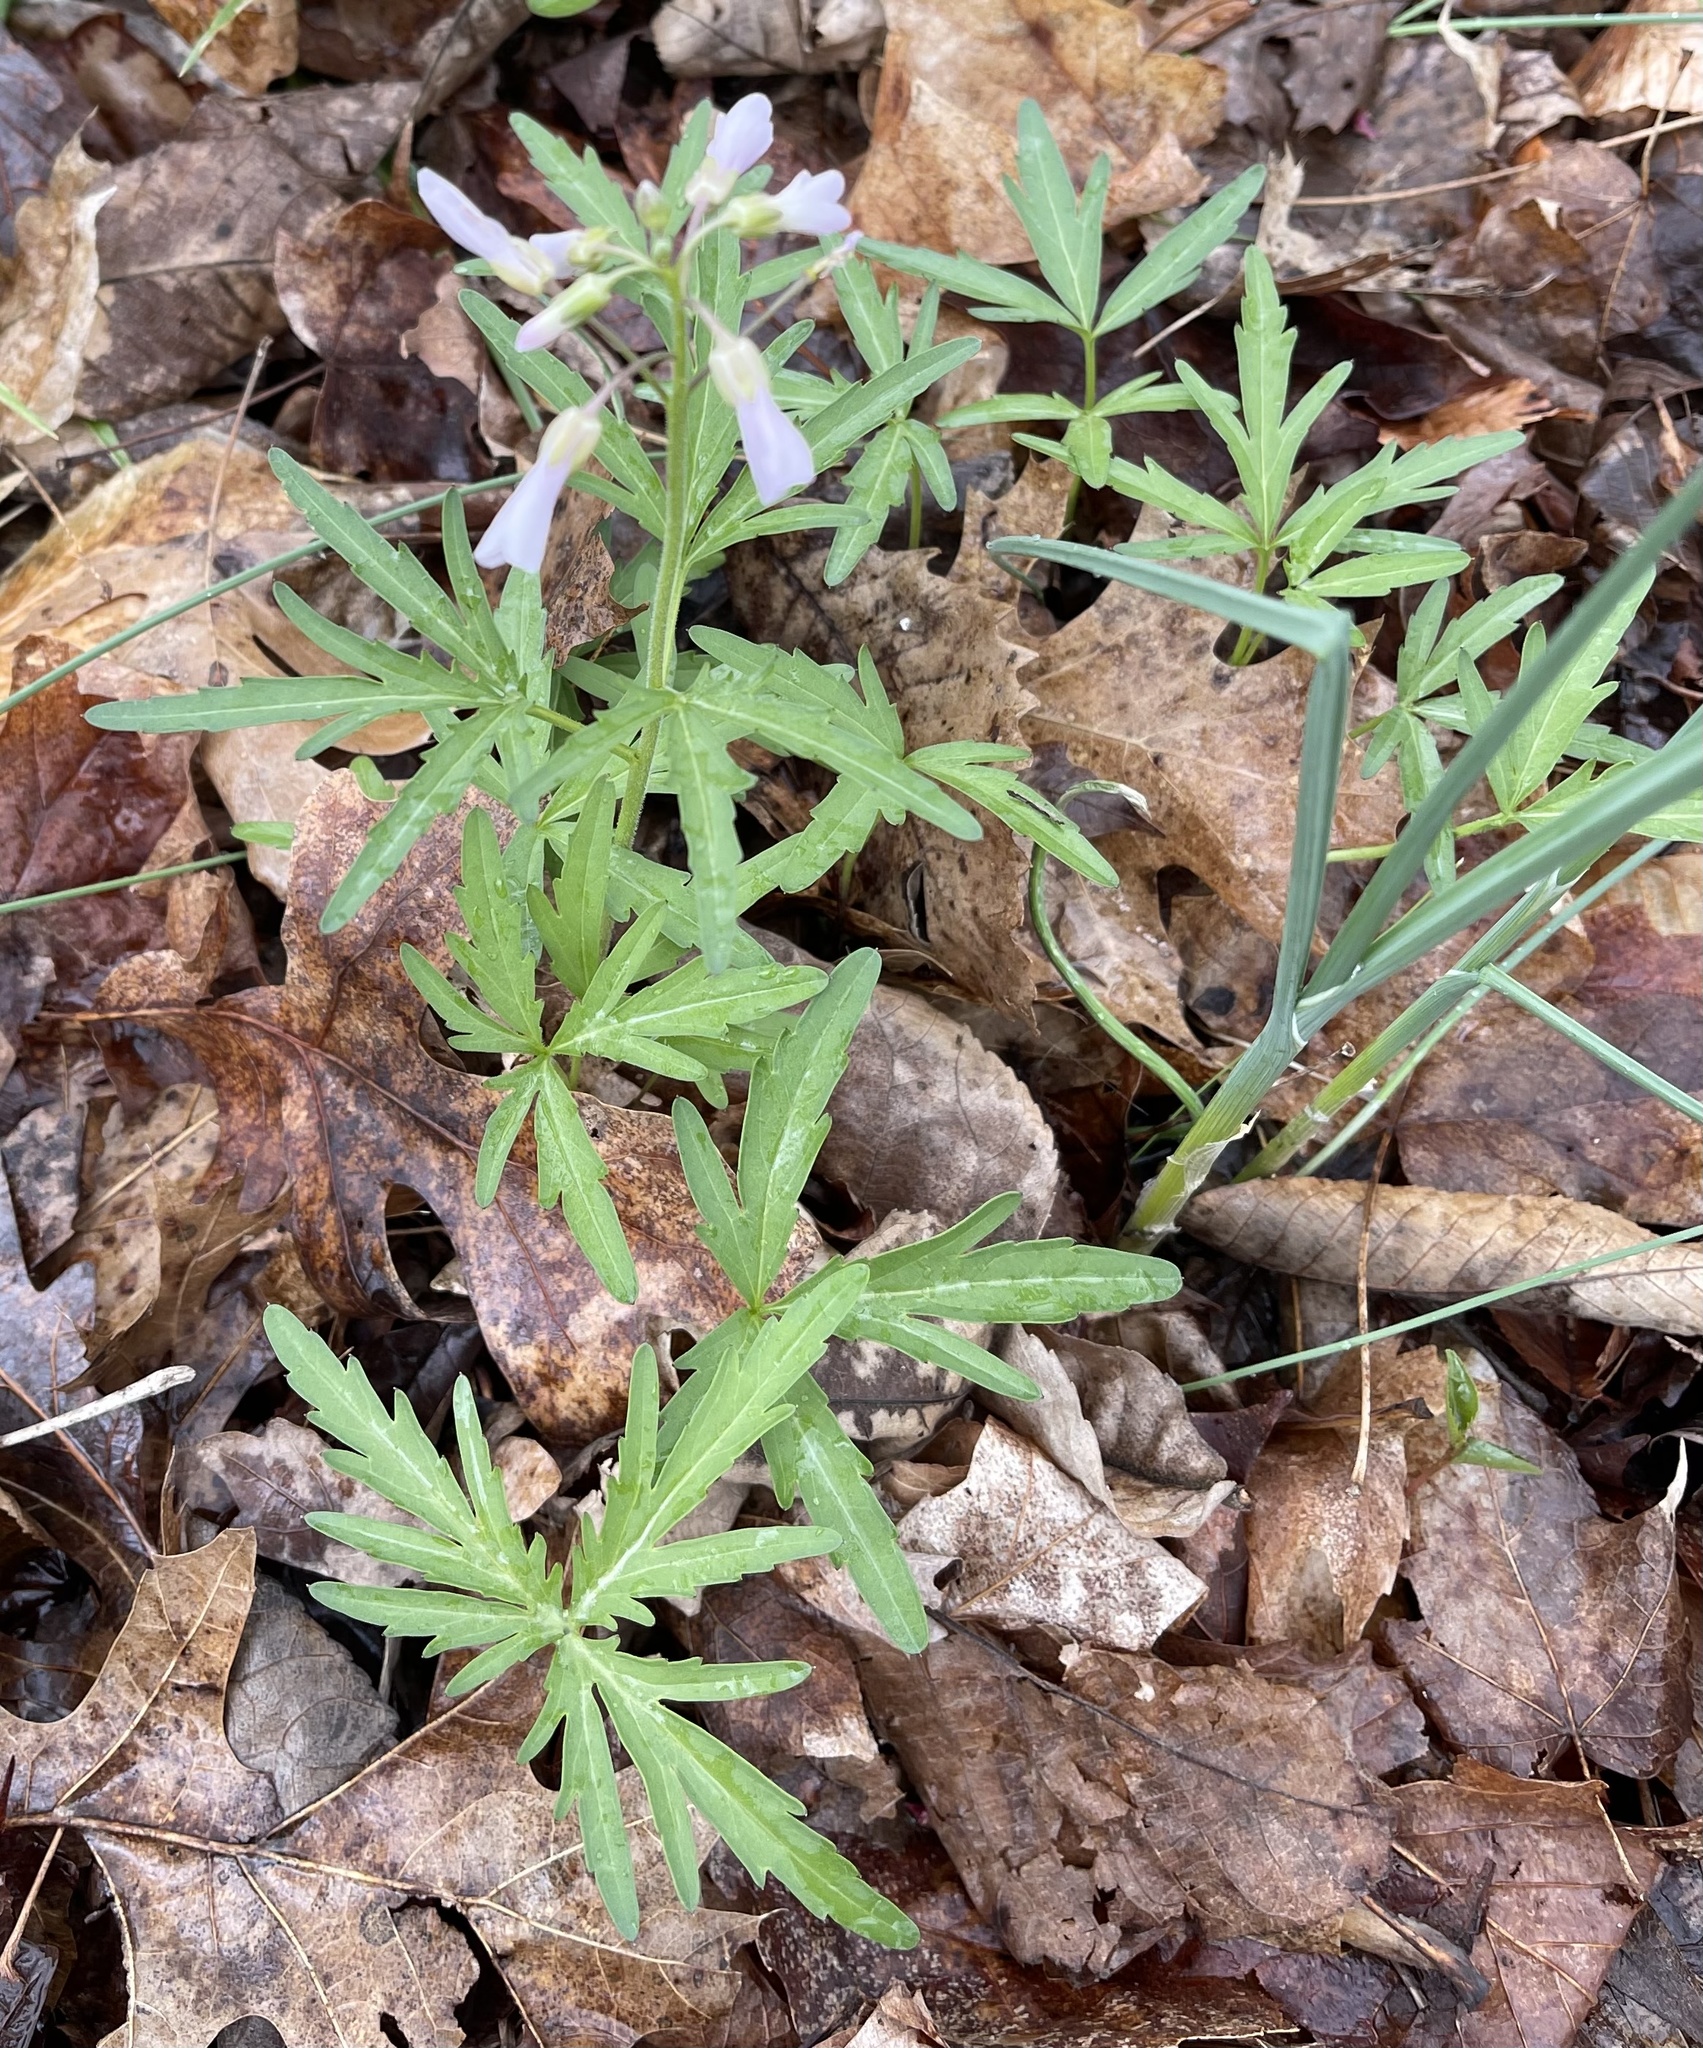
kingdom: Plantae
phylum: Tracheophyta
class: Magnoliopsida
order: Brassicales
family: Brassicaceae
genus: Cardamine
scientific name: Cardamine concatenata
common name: Cut-leaf toothcup
